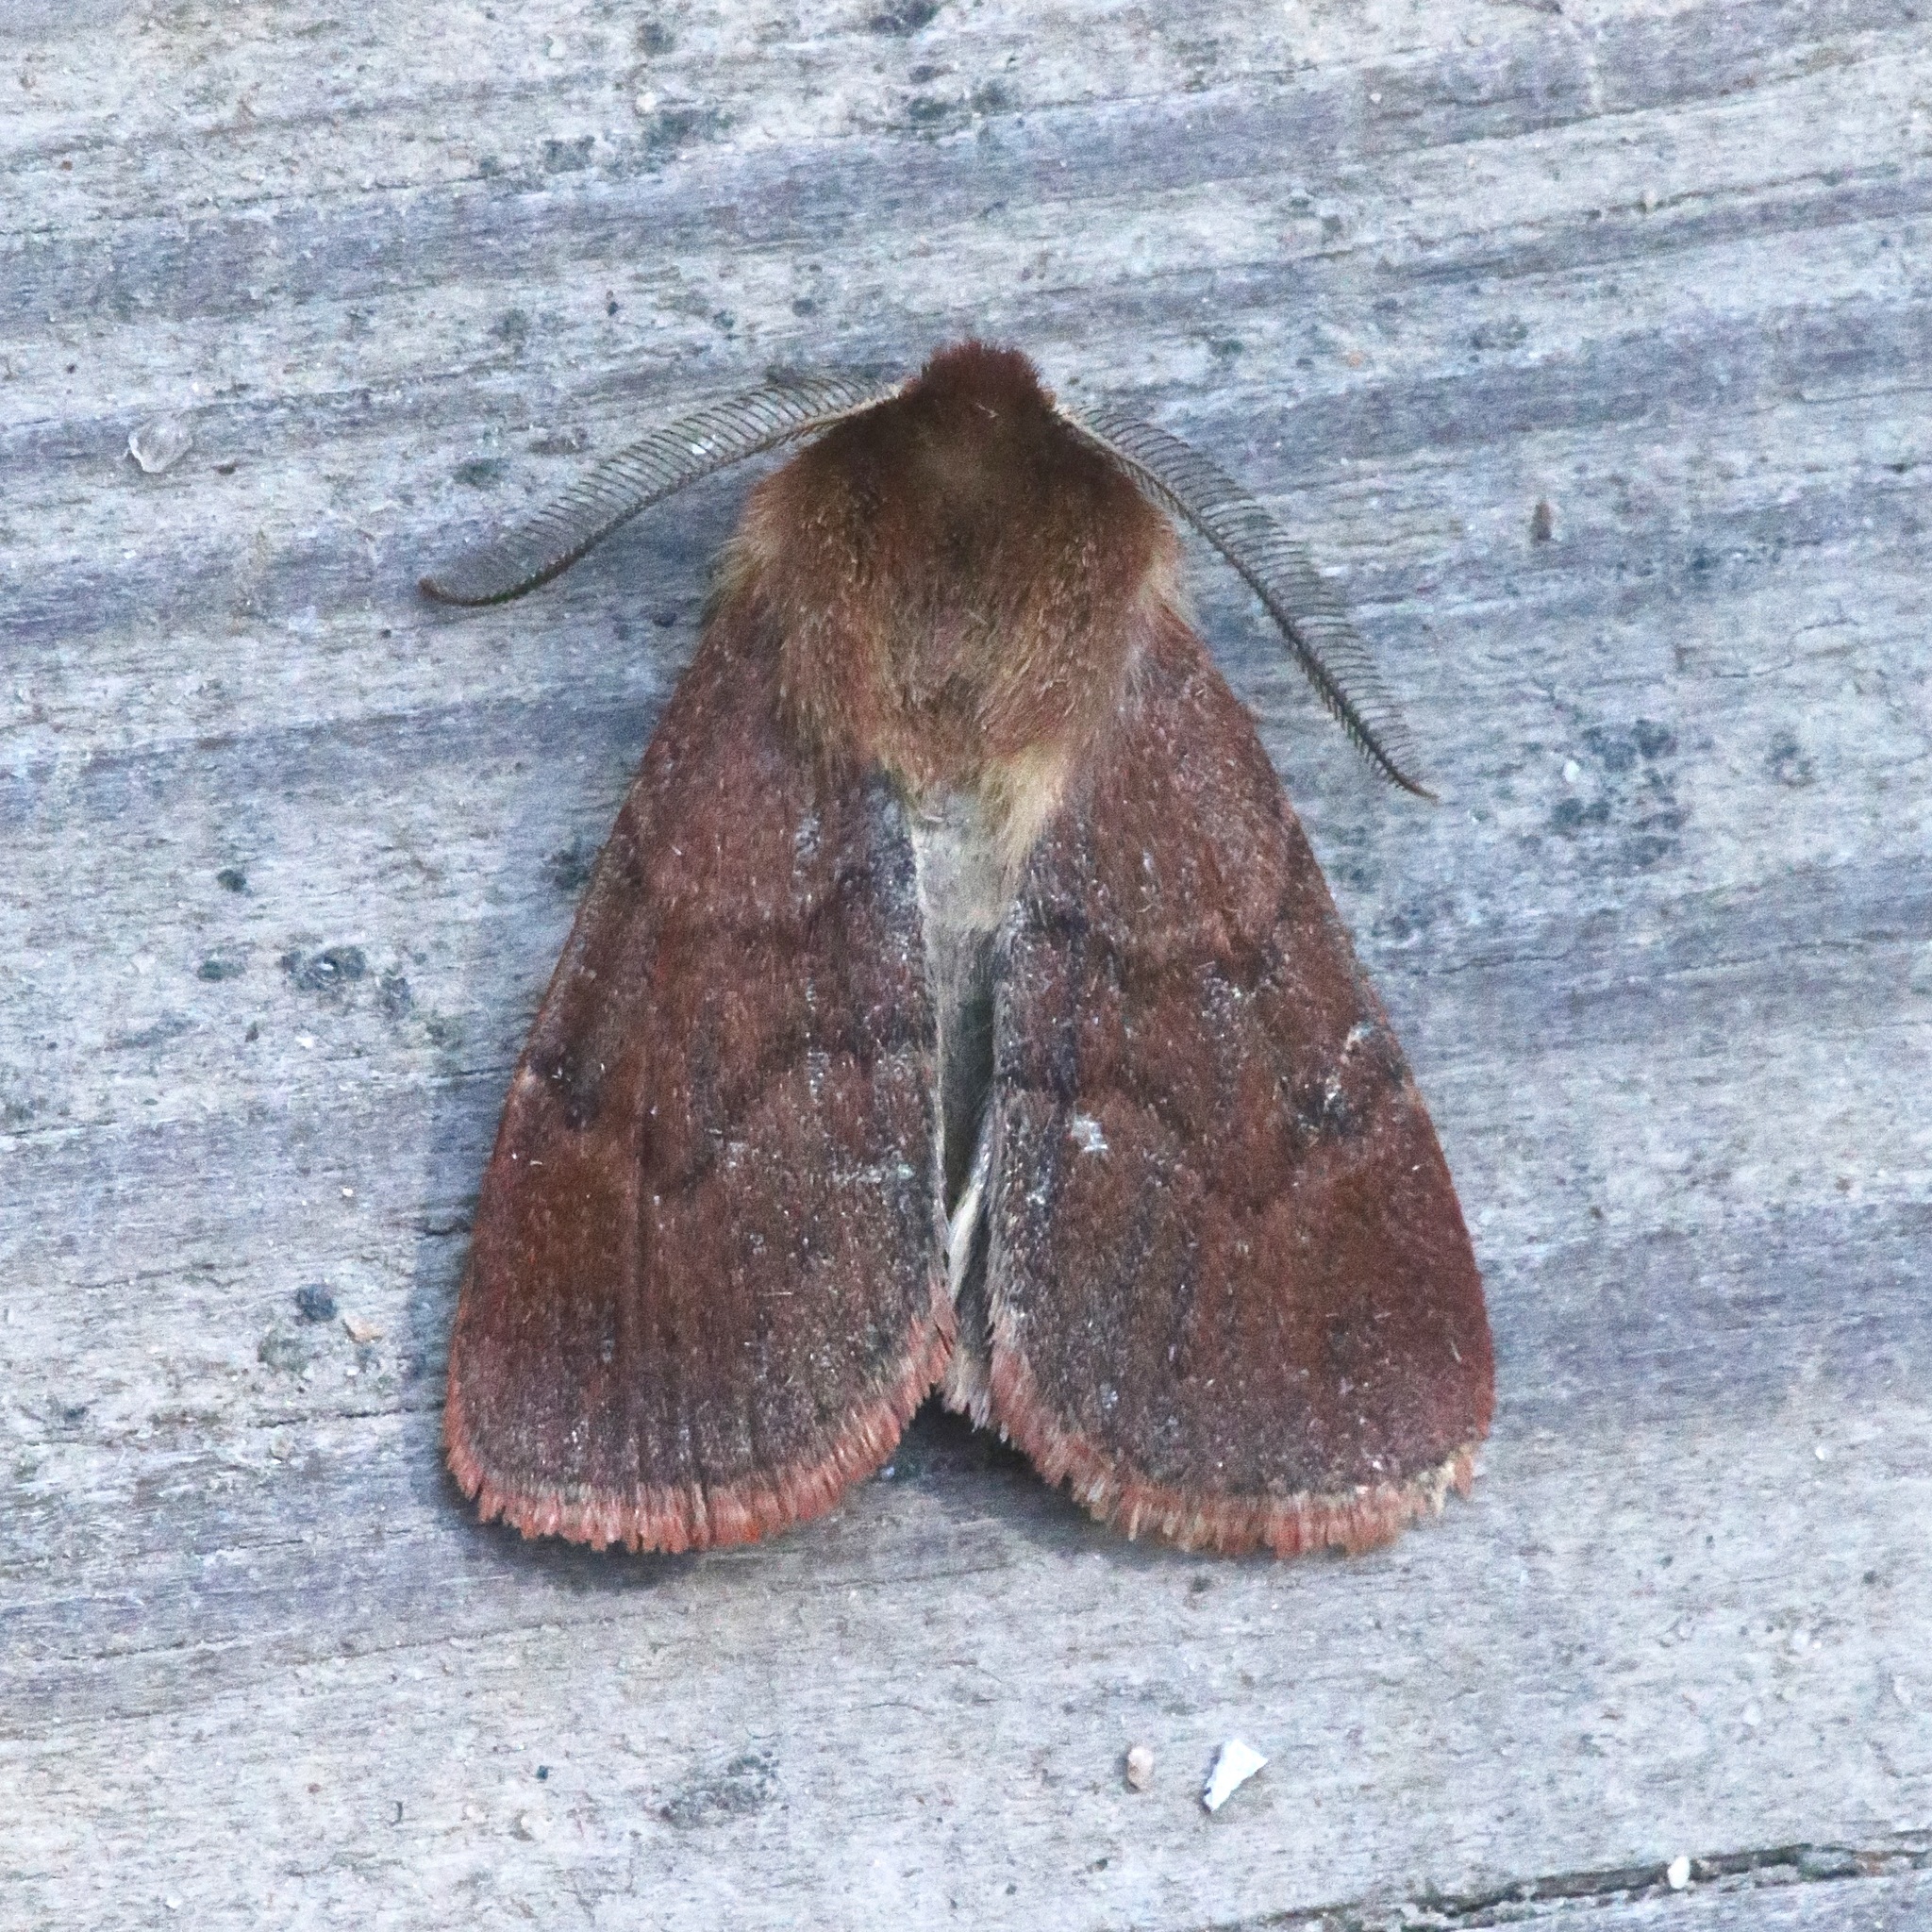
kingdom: Animalia
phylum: Arthropoda
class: Insecta
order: Lepidoptera
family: Noctuidae
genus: Hemipachnobia
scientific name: Hemipachnobia monochromatea
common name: Sundew cutworm moth
